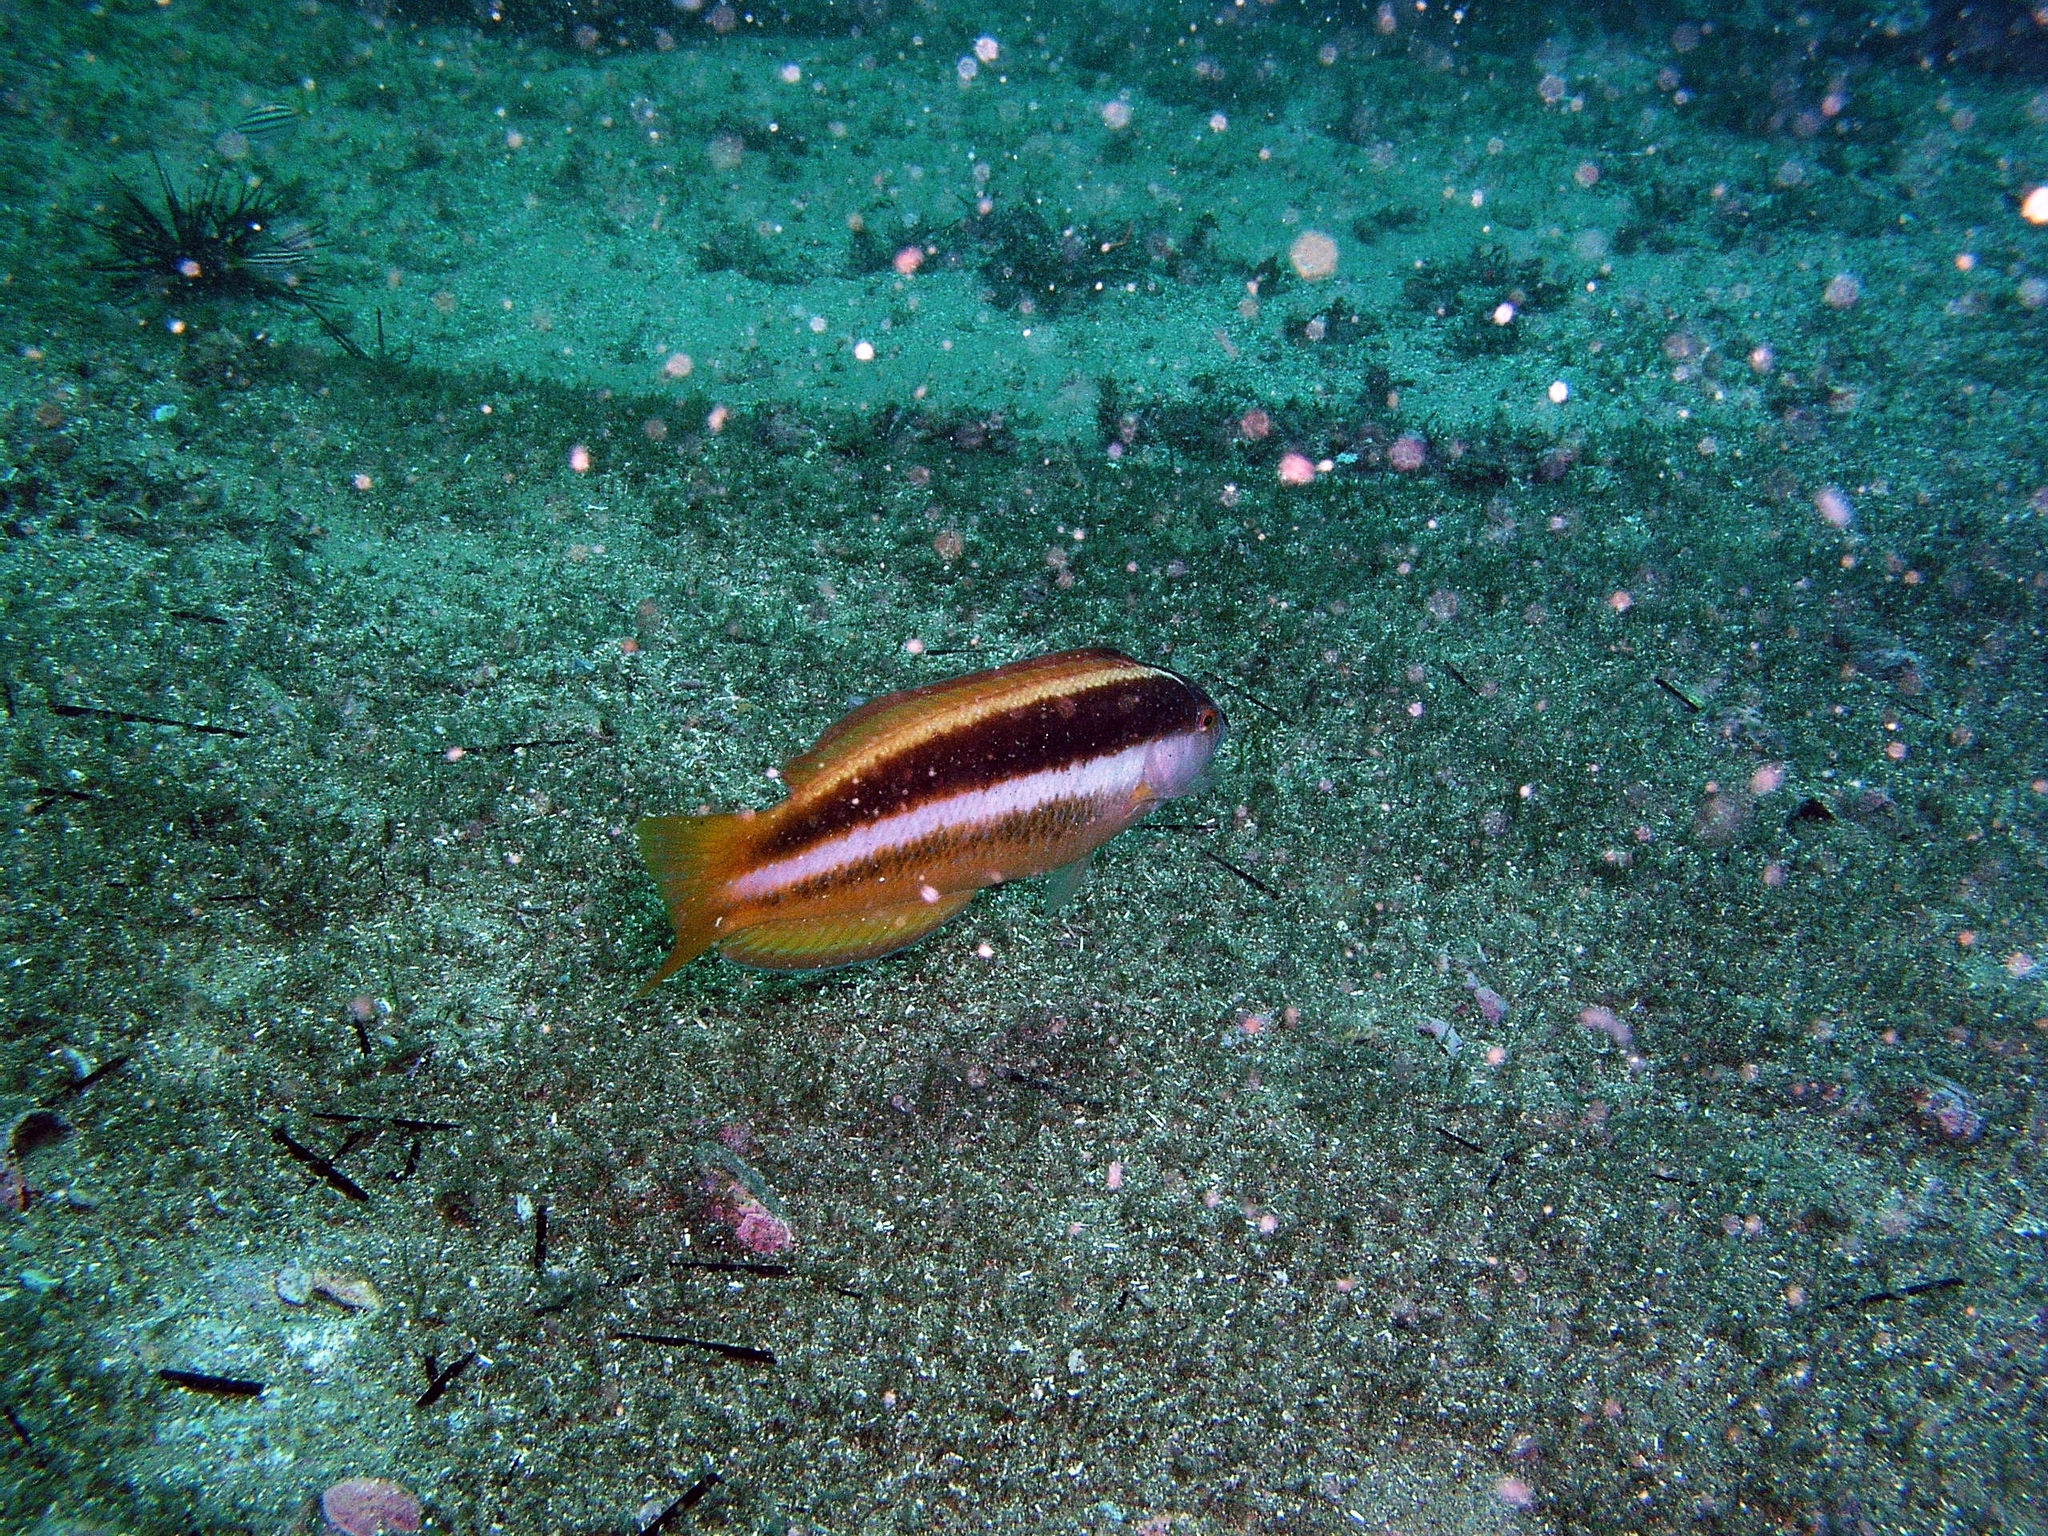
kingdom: Animalia
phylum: Chordata
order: Perciformes
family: Labridae
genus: Ophthalmolepis
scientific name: Ophthalmolepis lineolata
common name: Maori wrasse
